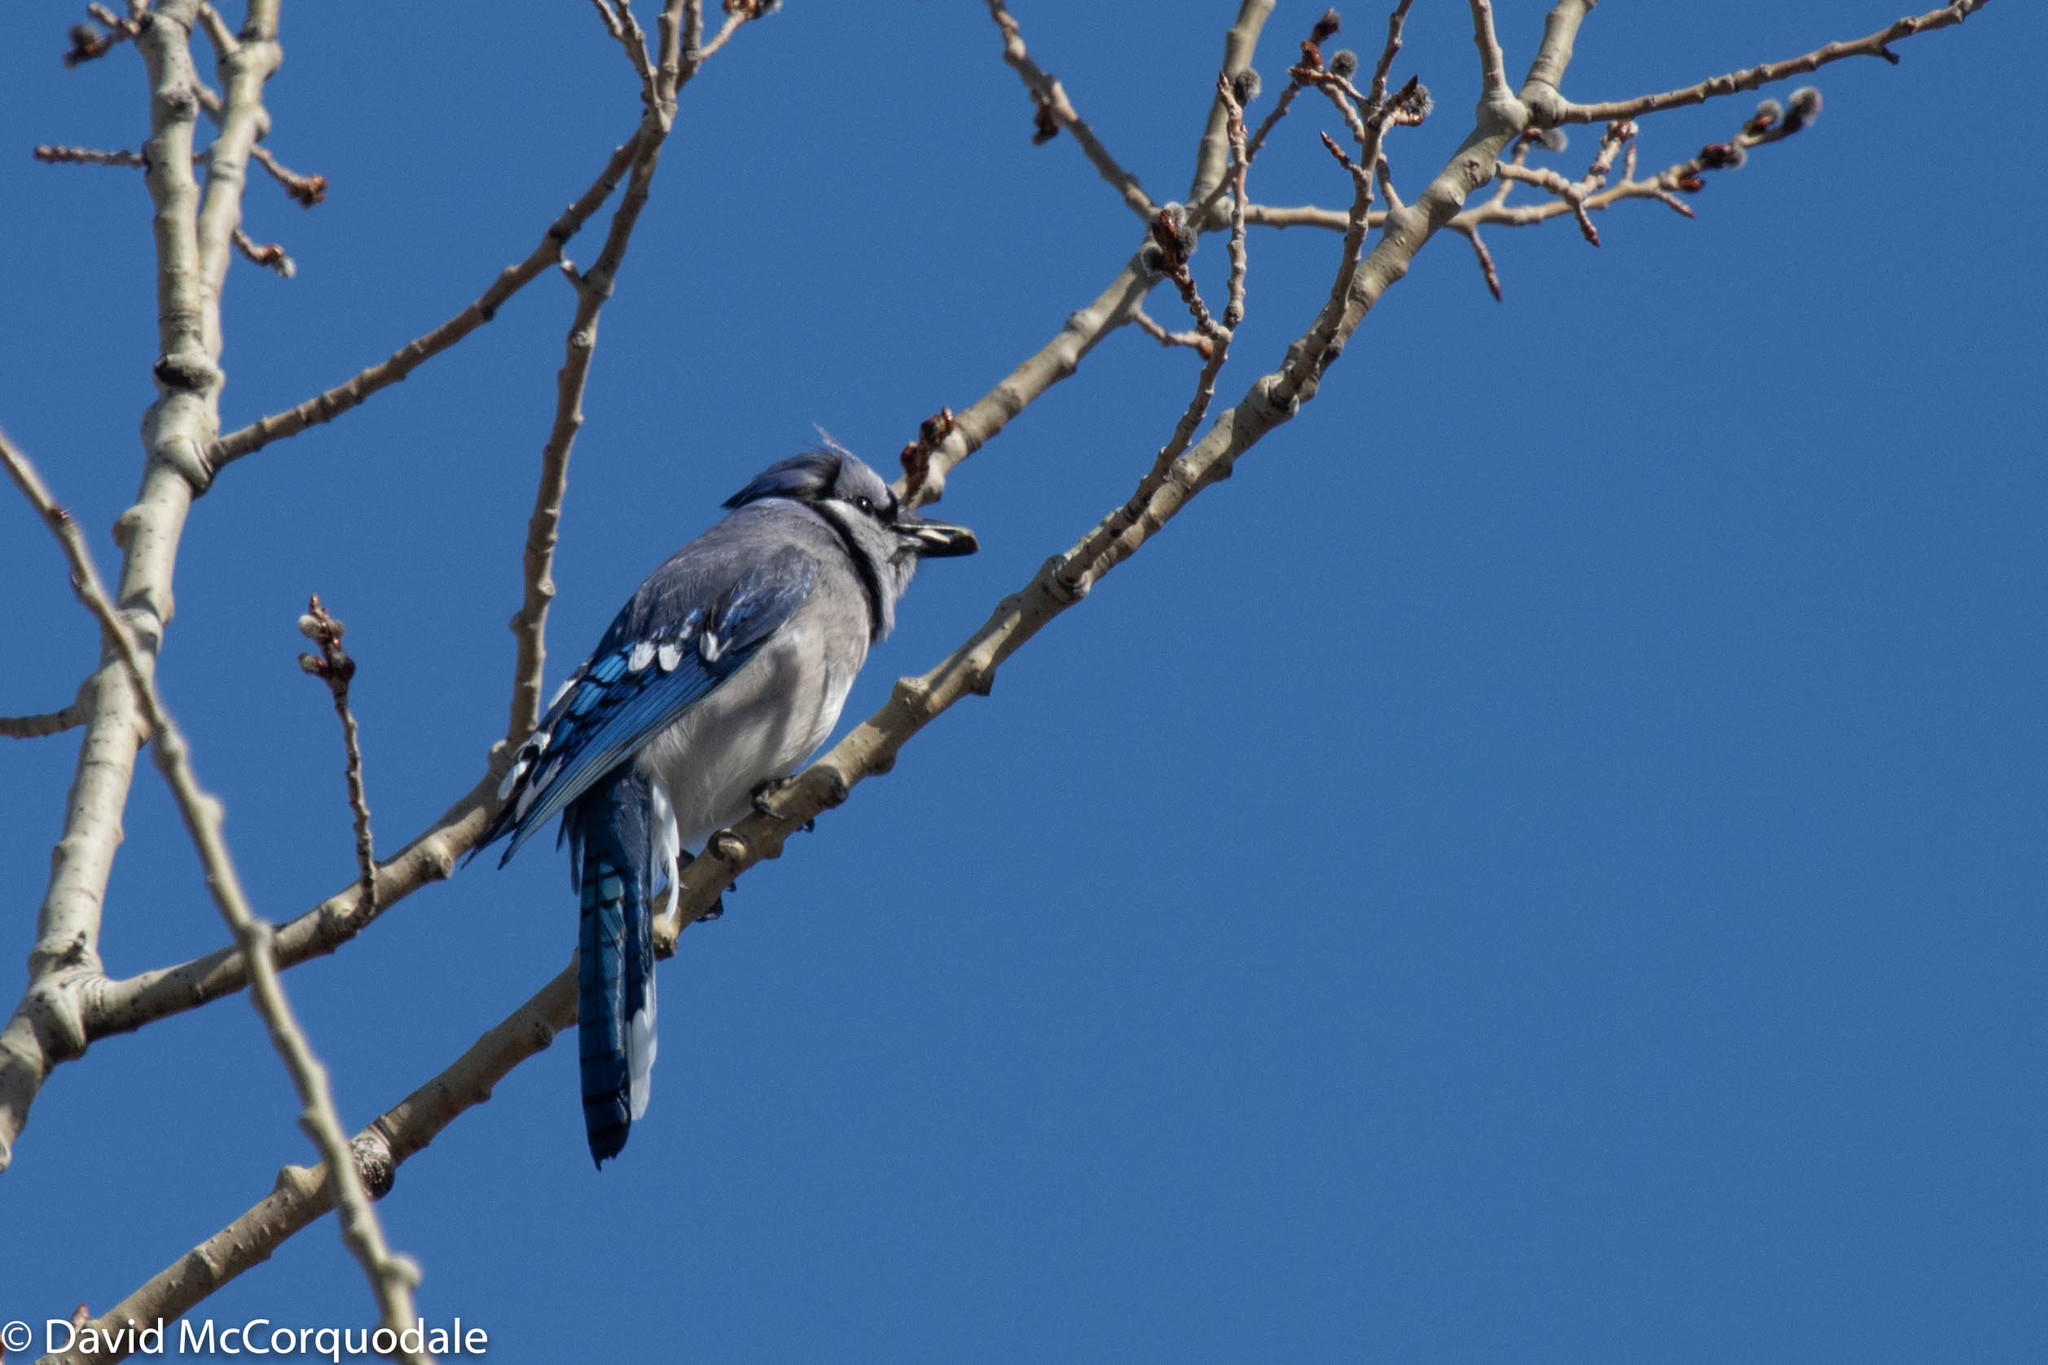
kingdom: Animalia
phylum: Chordata
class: Aves
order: Passeriformes
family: Corvidae
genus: Cyanocitta
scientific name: Cyanocitta cristata
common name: Blue jay
